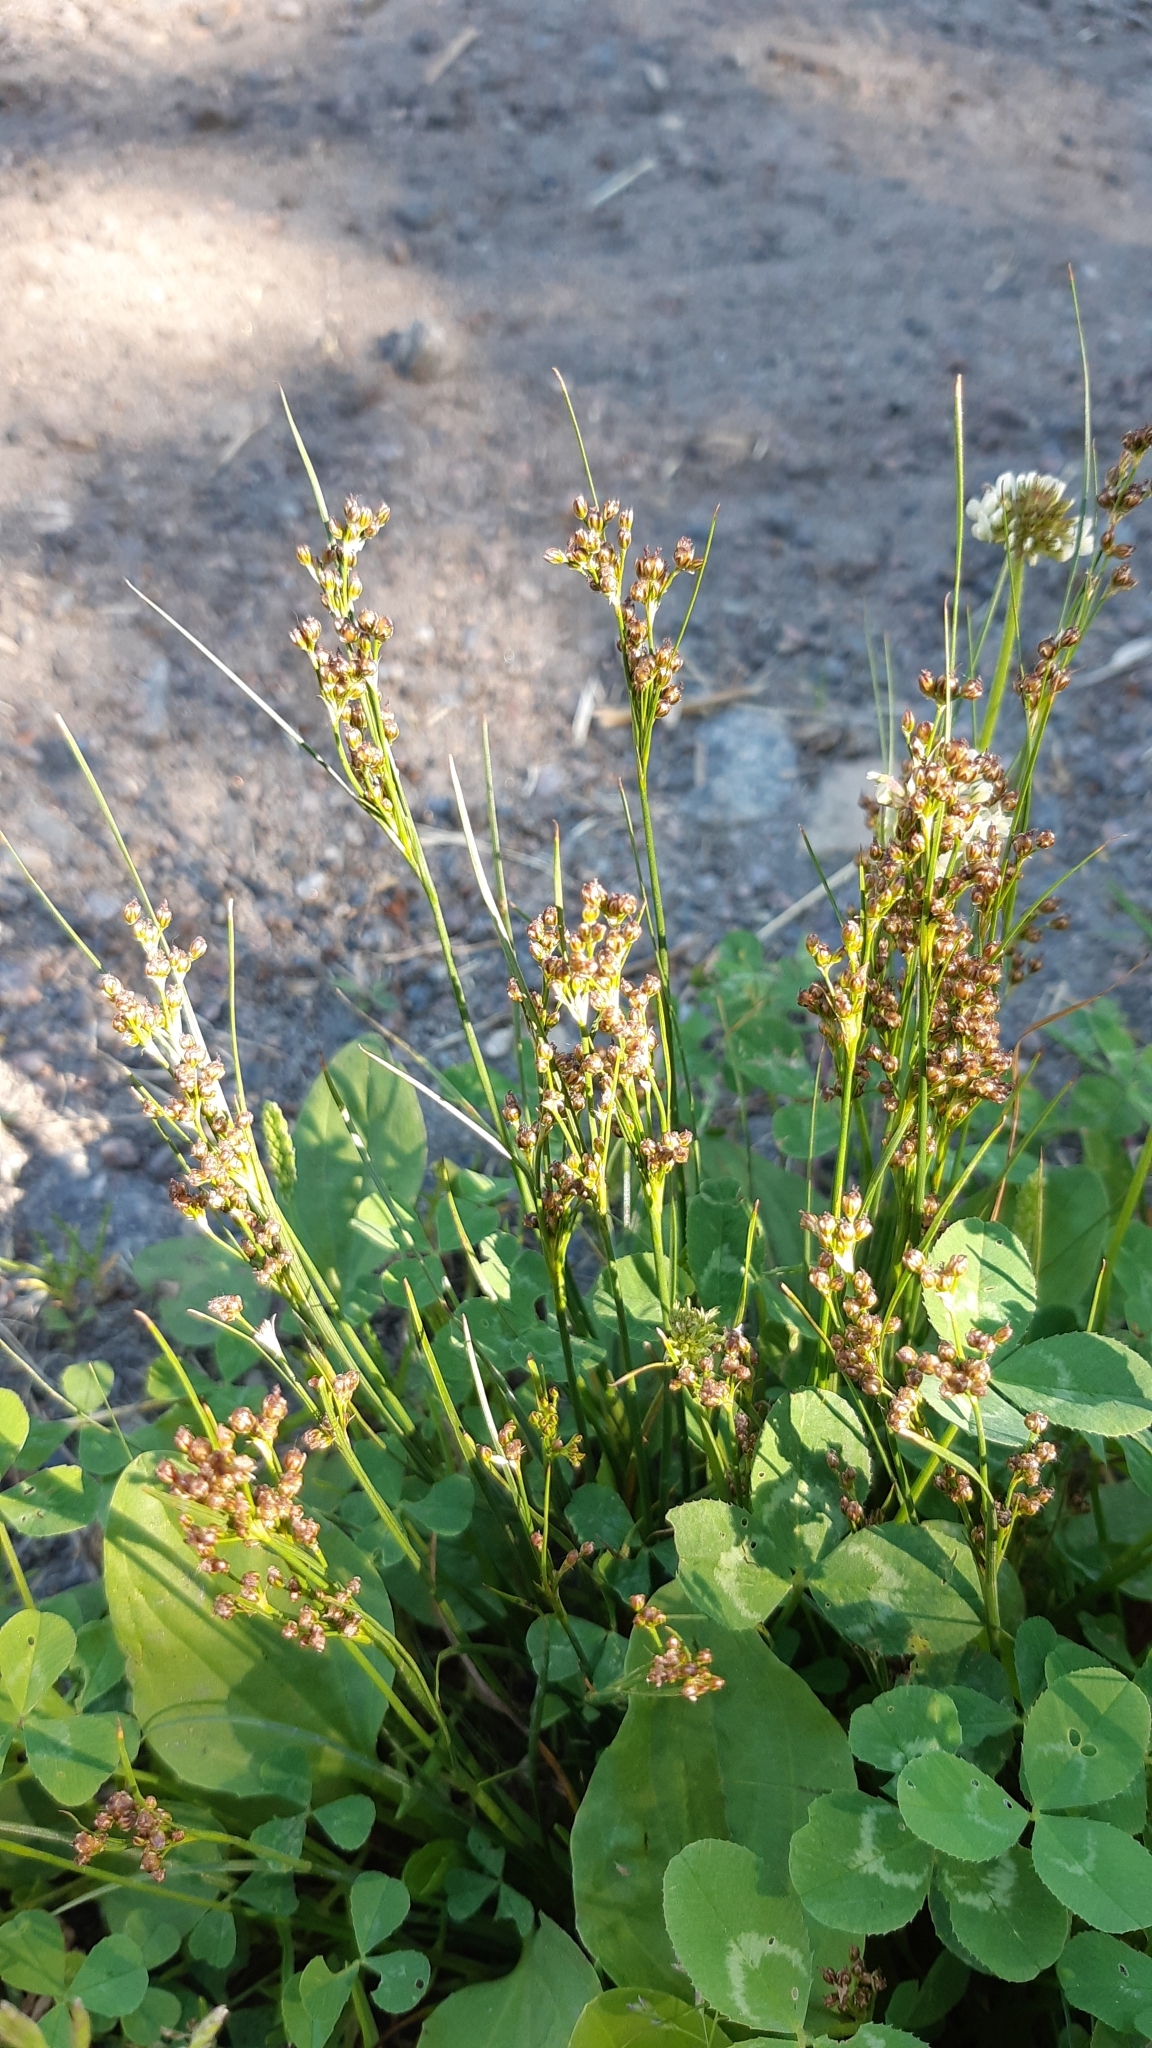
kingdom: Plantae
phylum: Tracheophyta
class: Liliopsida
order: Poales
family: Juncaceae
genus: Juncus
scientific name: Juncus compressus
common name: Round-fruited rush
